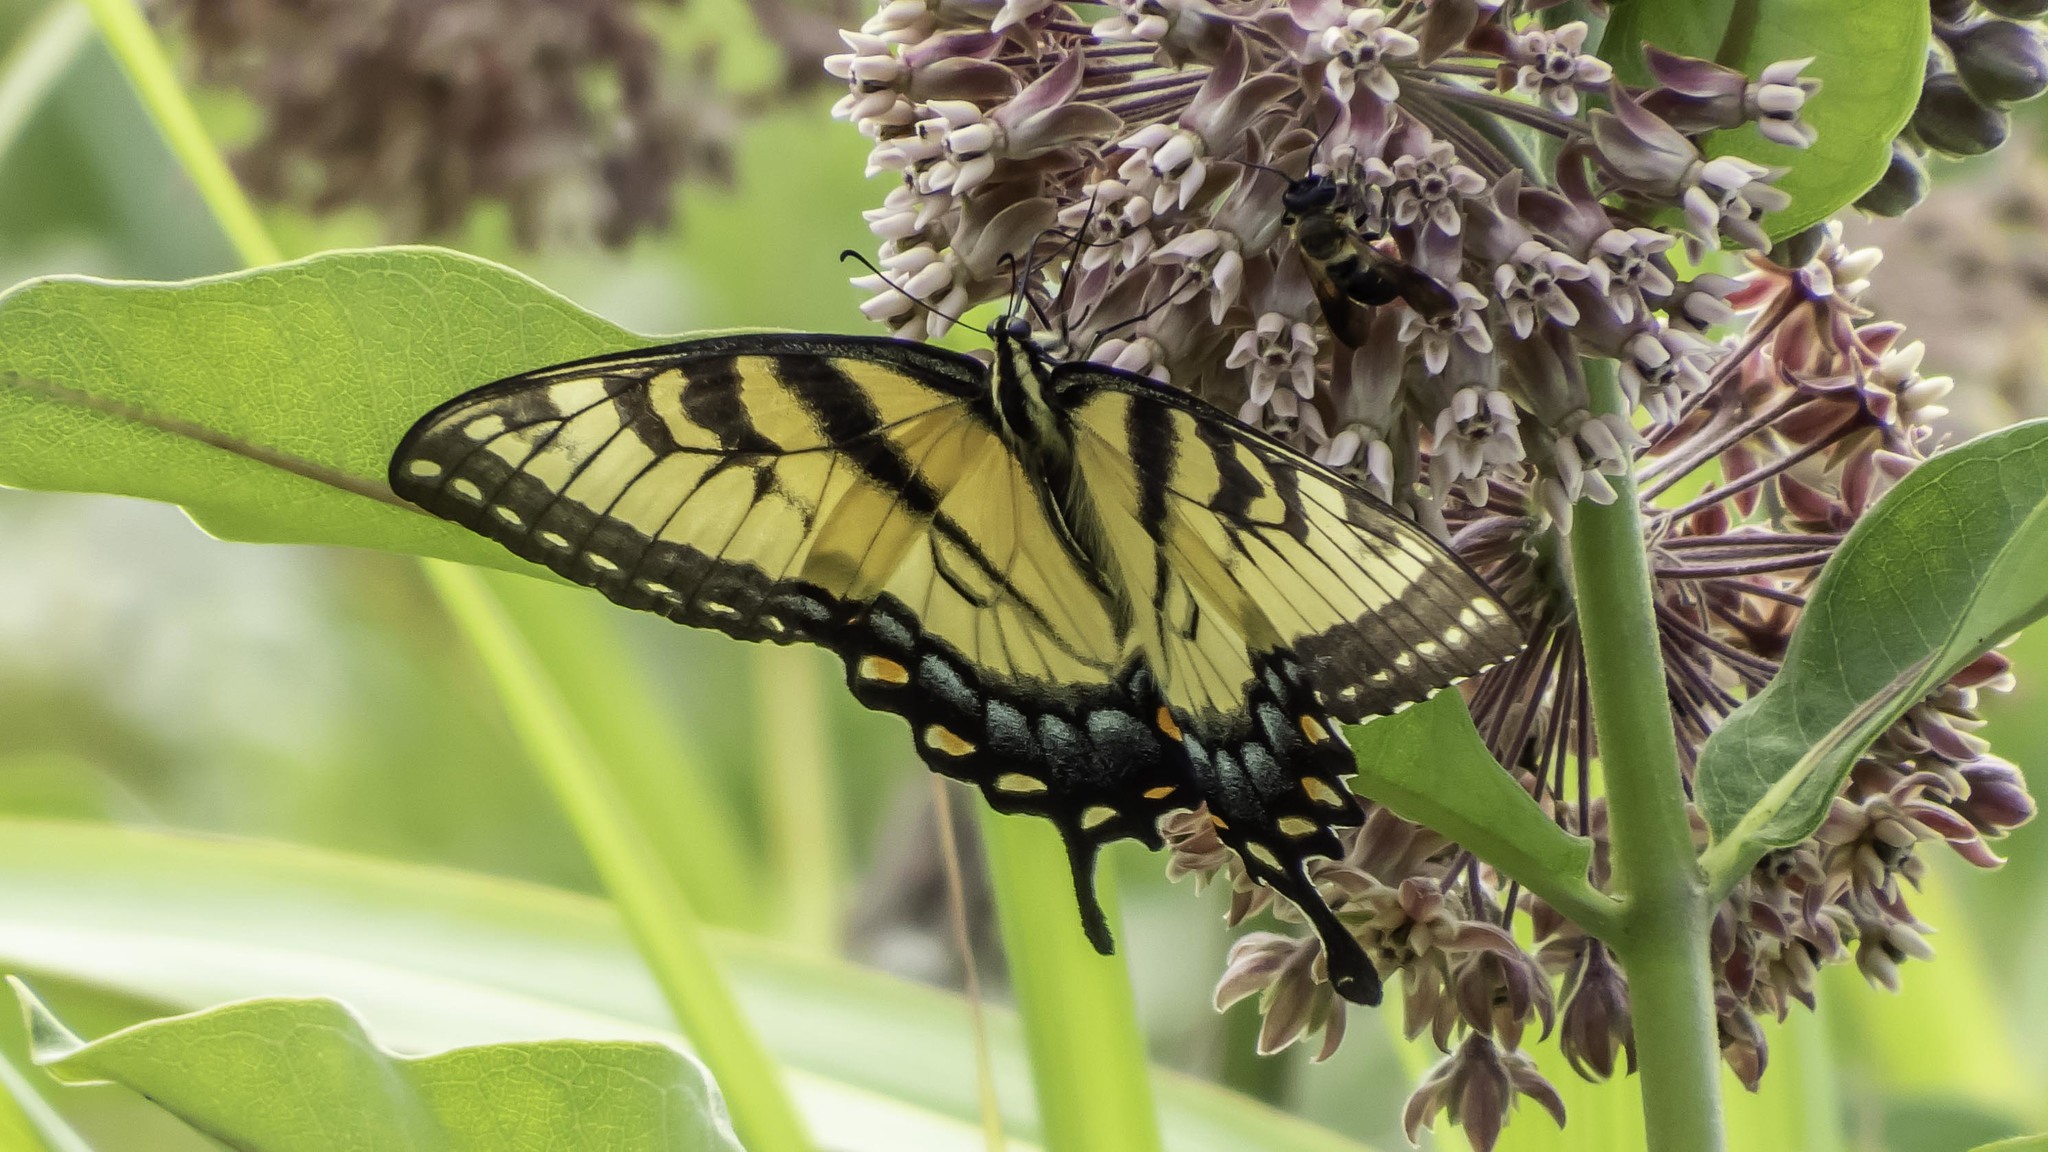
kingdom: Animalia
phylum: Arthropoda
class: Insecta
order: Lepidoptera
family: Papilionidae
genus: Papilio
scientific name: Papilio glaucus
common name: Tiger swallowtail
